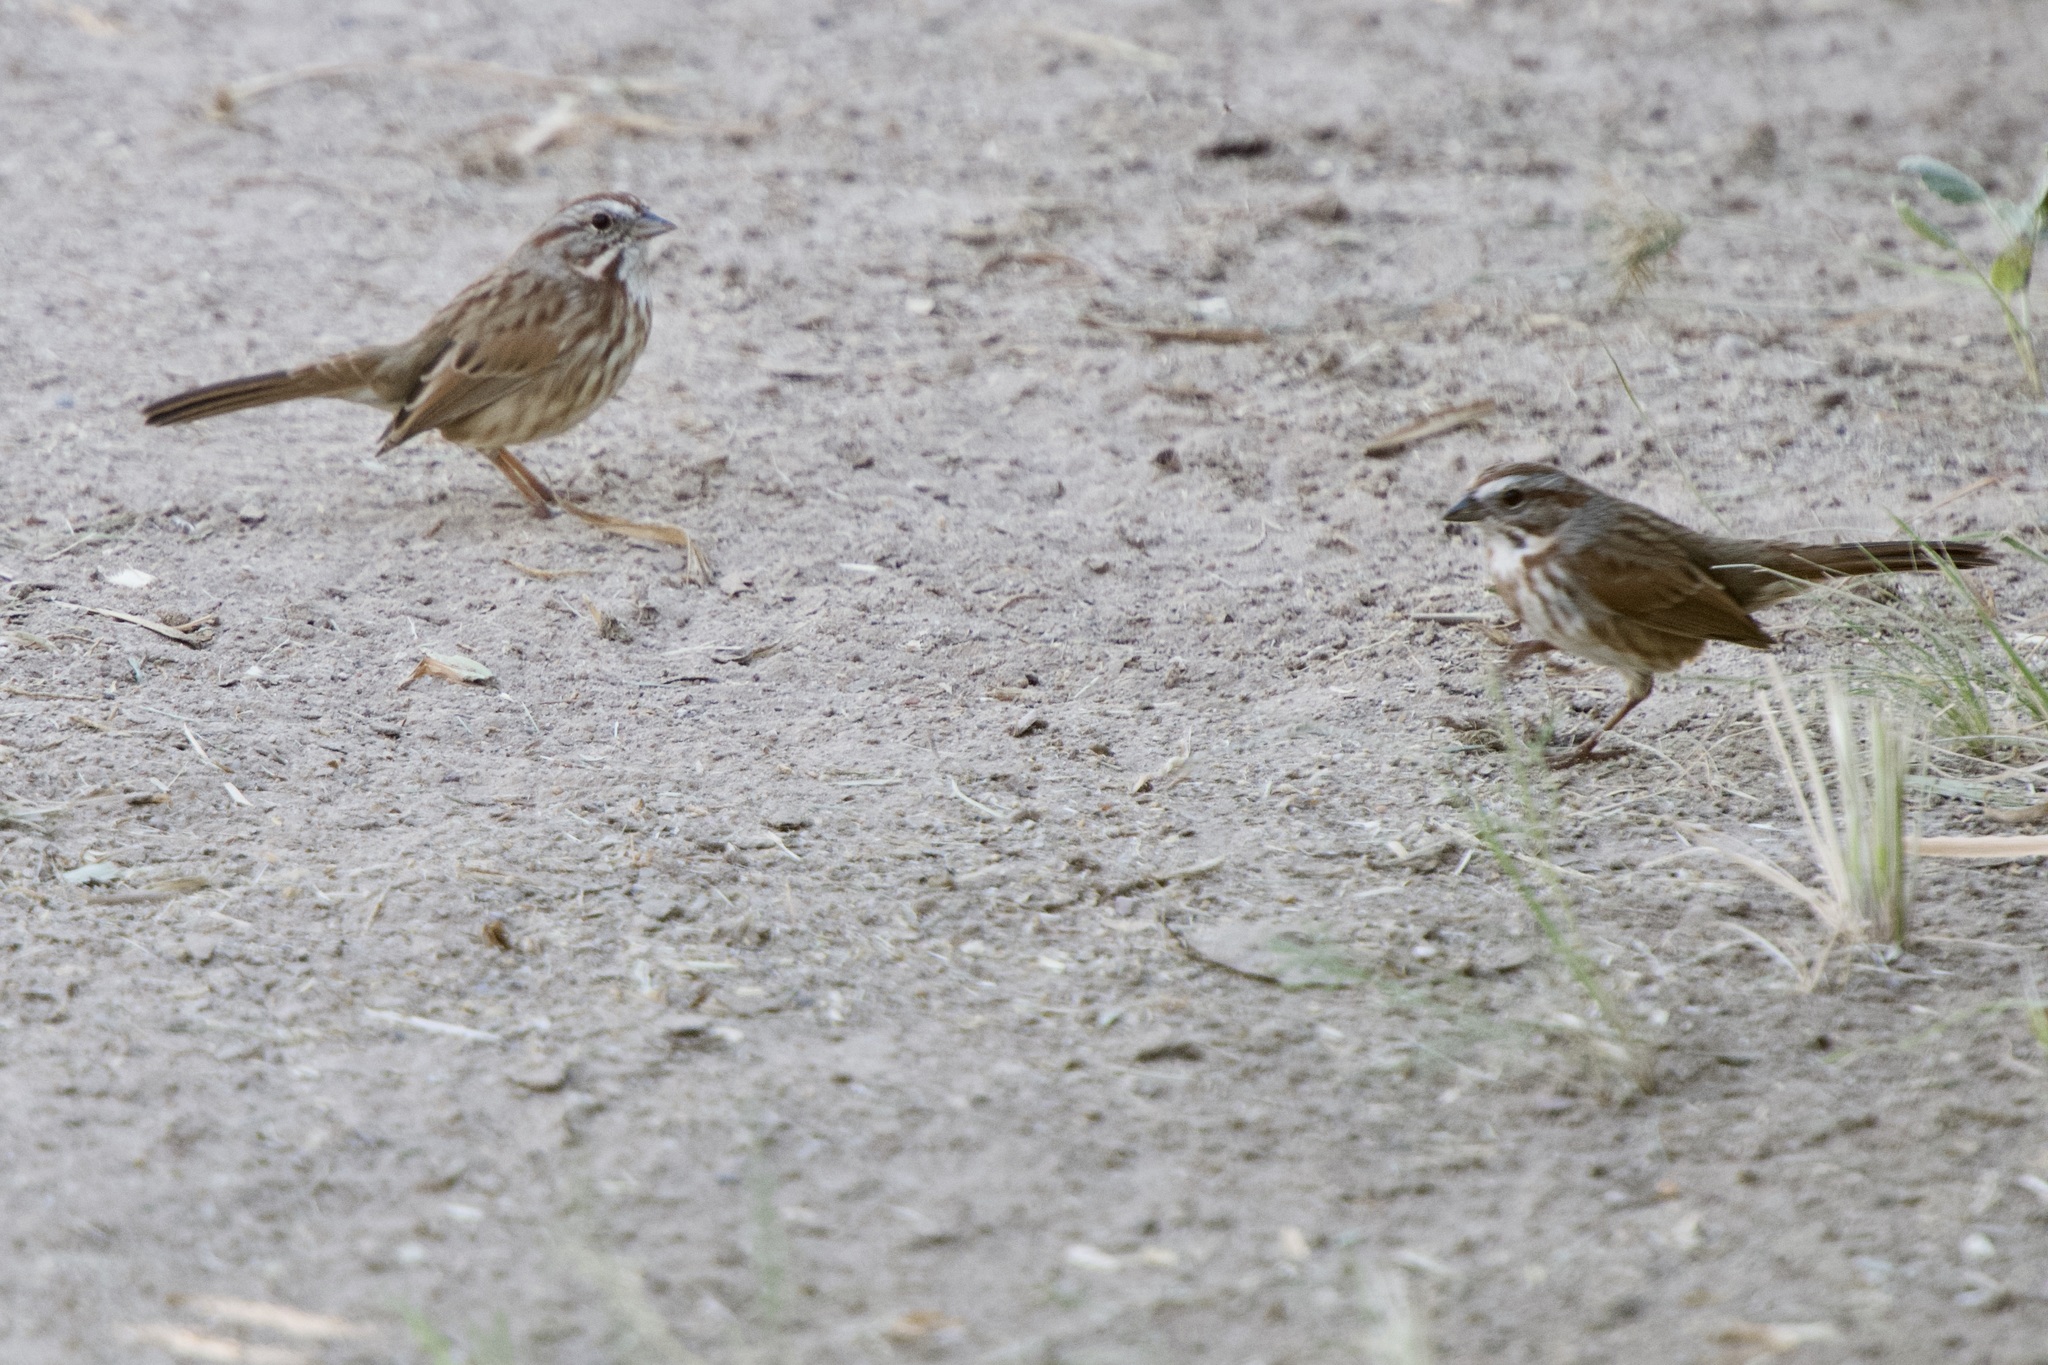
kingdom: Animalia
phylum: Chordata
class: Aves
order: Passeriformes
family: Passerellidae
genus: Melospiza
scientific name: Melospiza melodia
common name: Song sparrow
